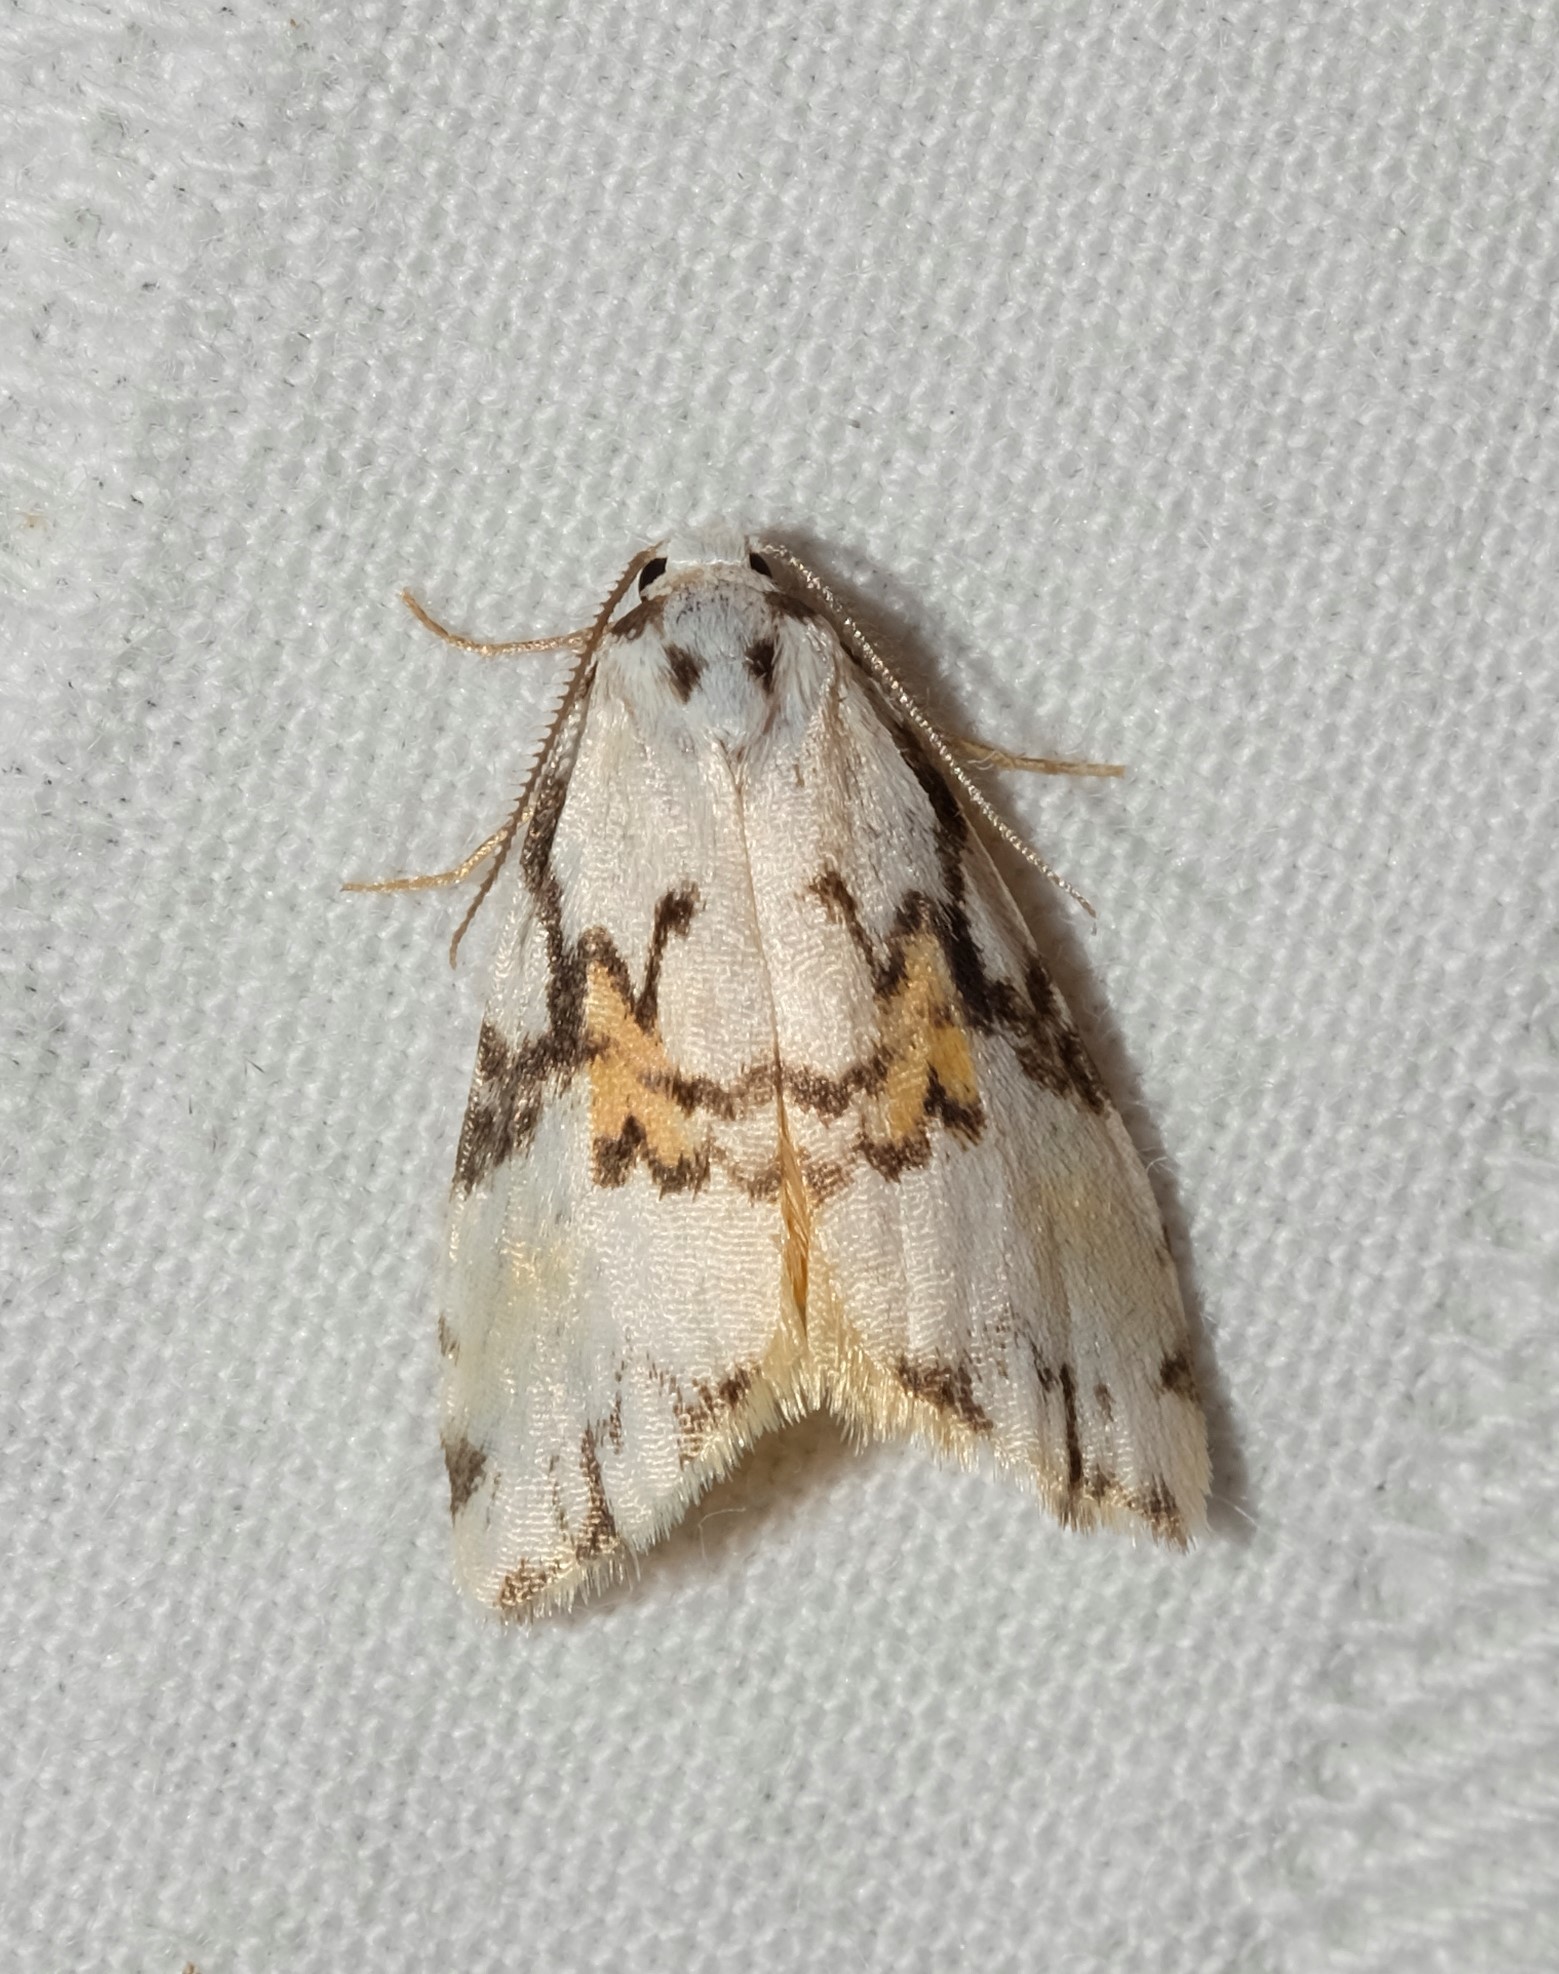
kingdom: Animalia
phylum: Arthropoda
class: Insecta
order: Lepidoptera
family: Erebidae
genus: Thallarcha
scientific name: Thallarcha oblita
